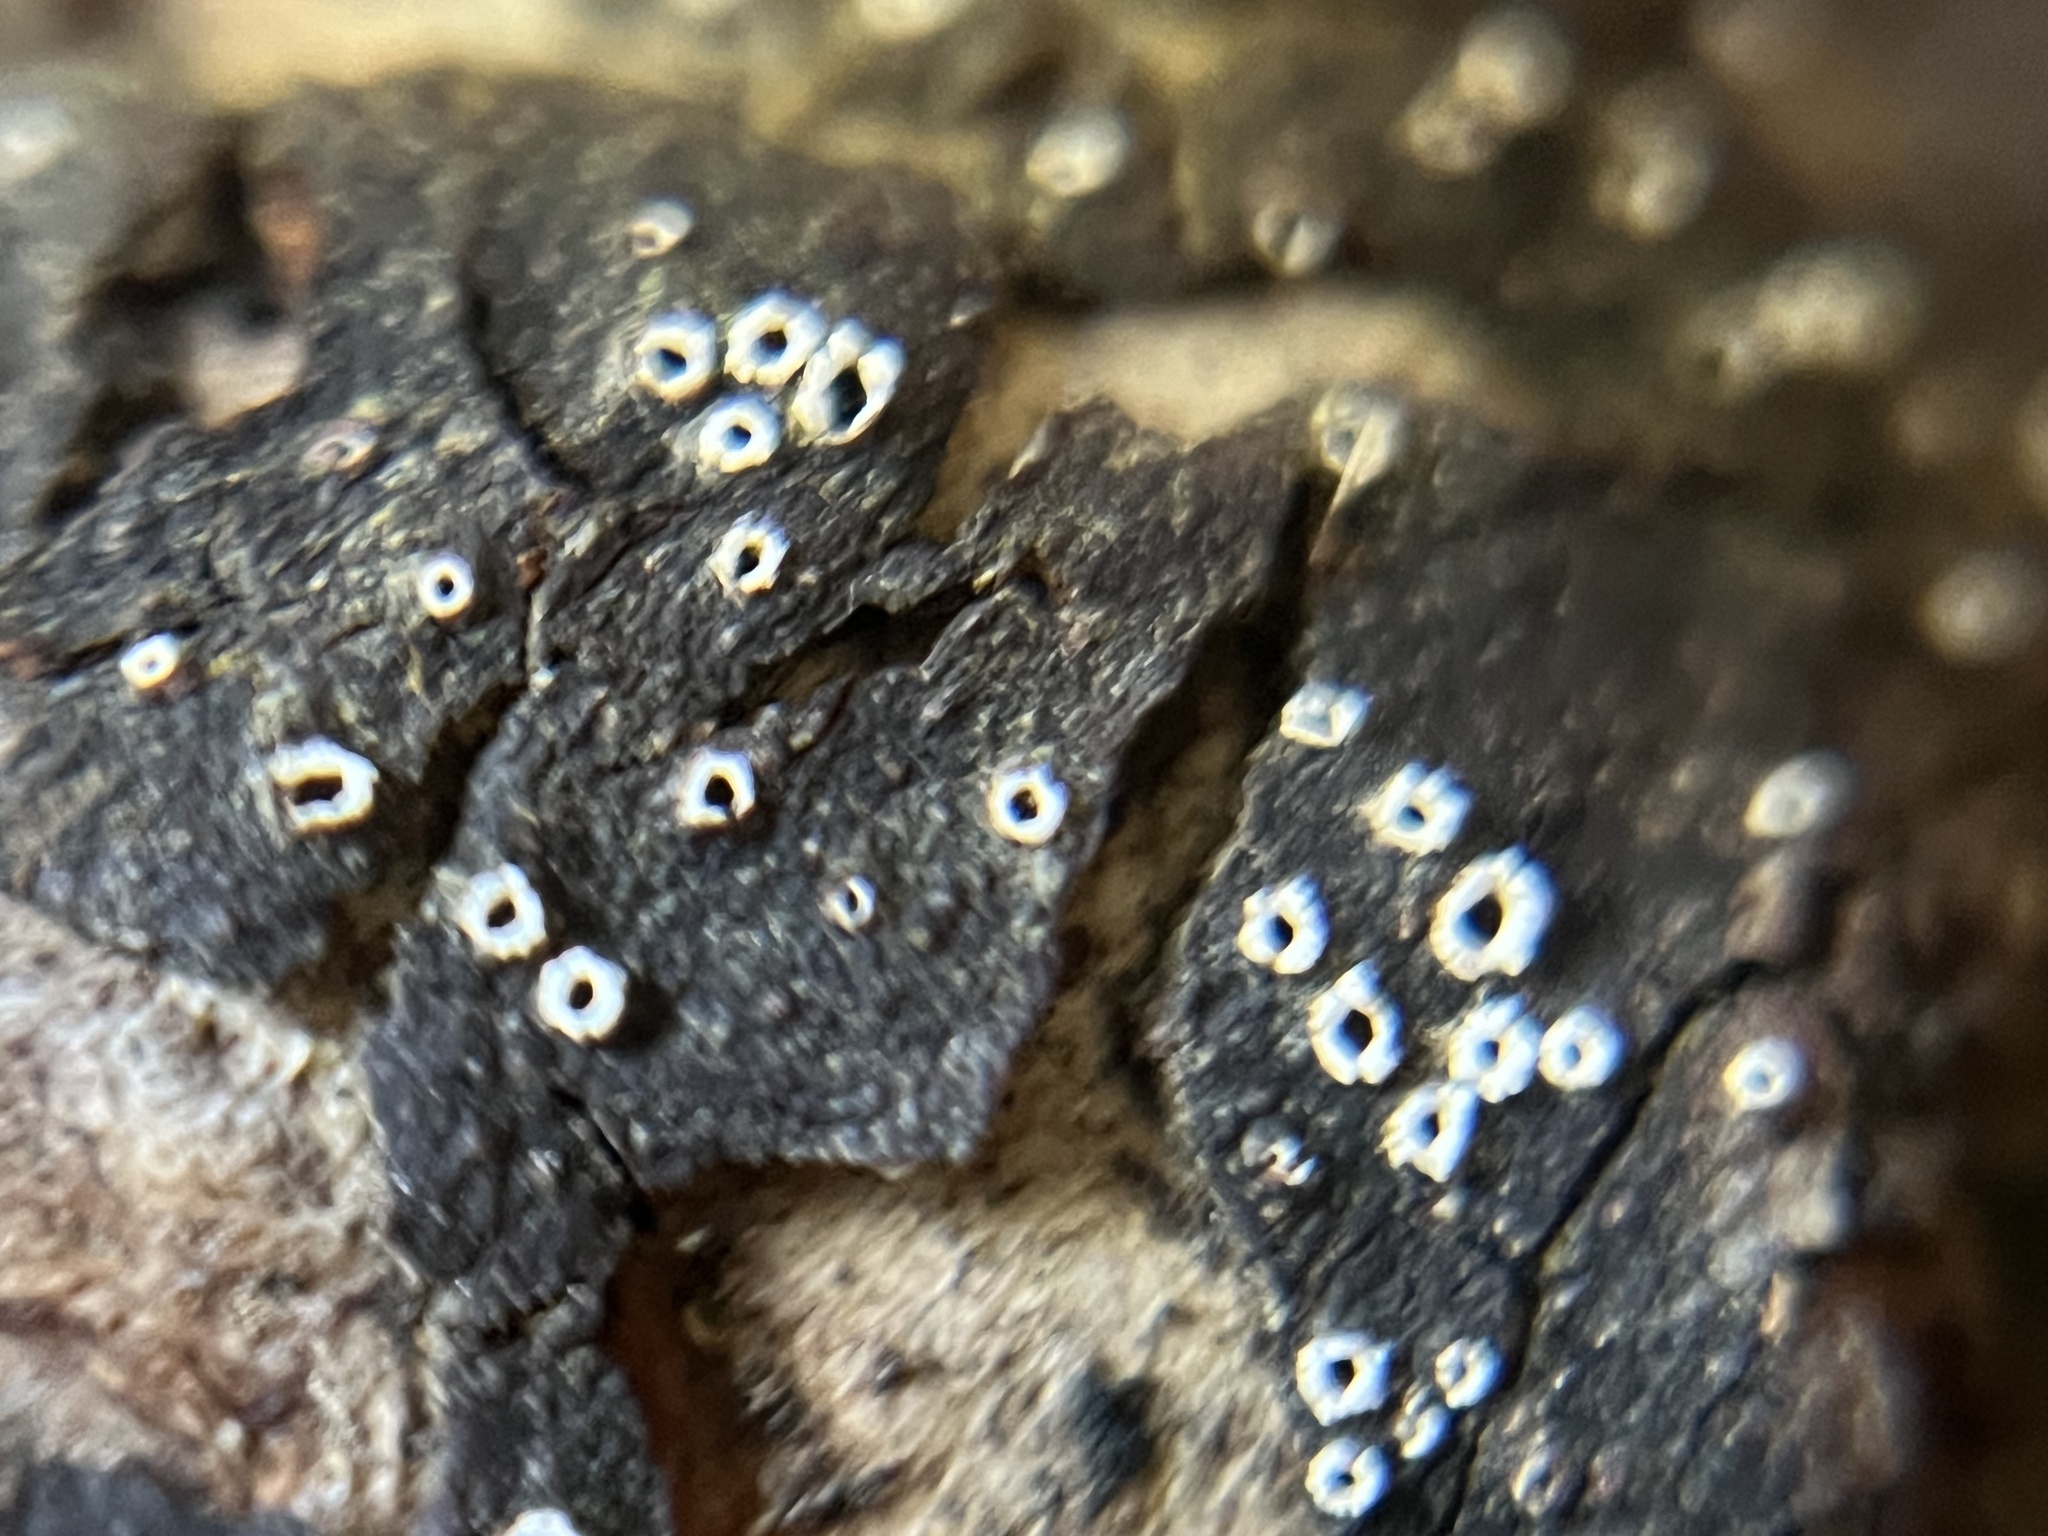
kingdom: Fungi
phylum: Ascomycota
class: Lecanoromycetes
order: Ostropales
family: Stictidaceae
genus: Stictis
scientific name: Stictis radiata
